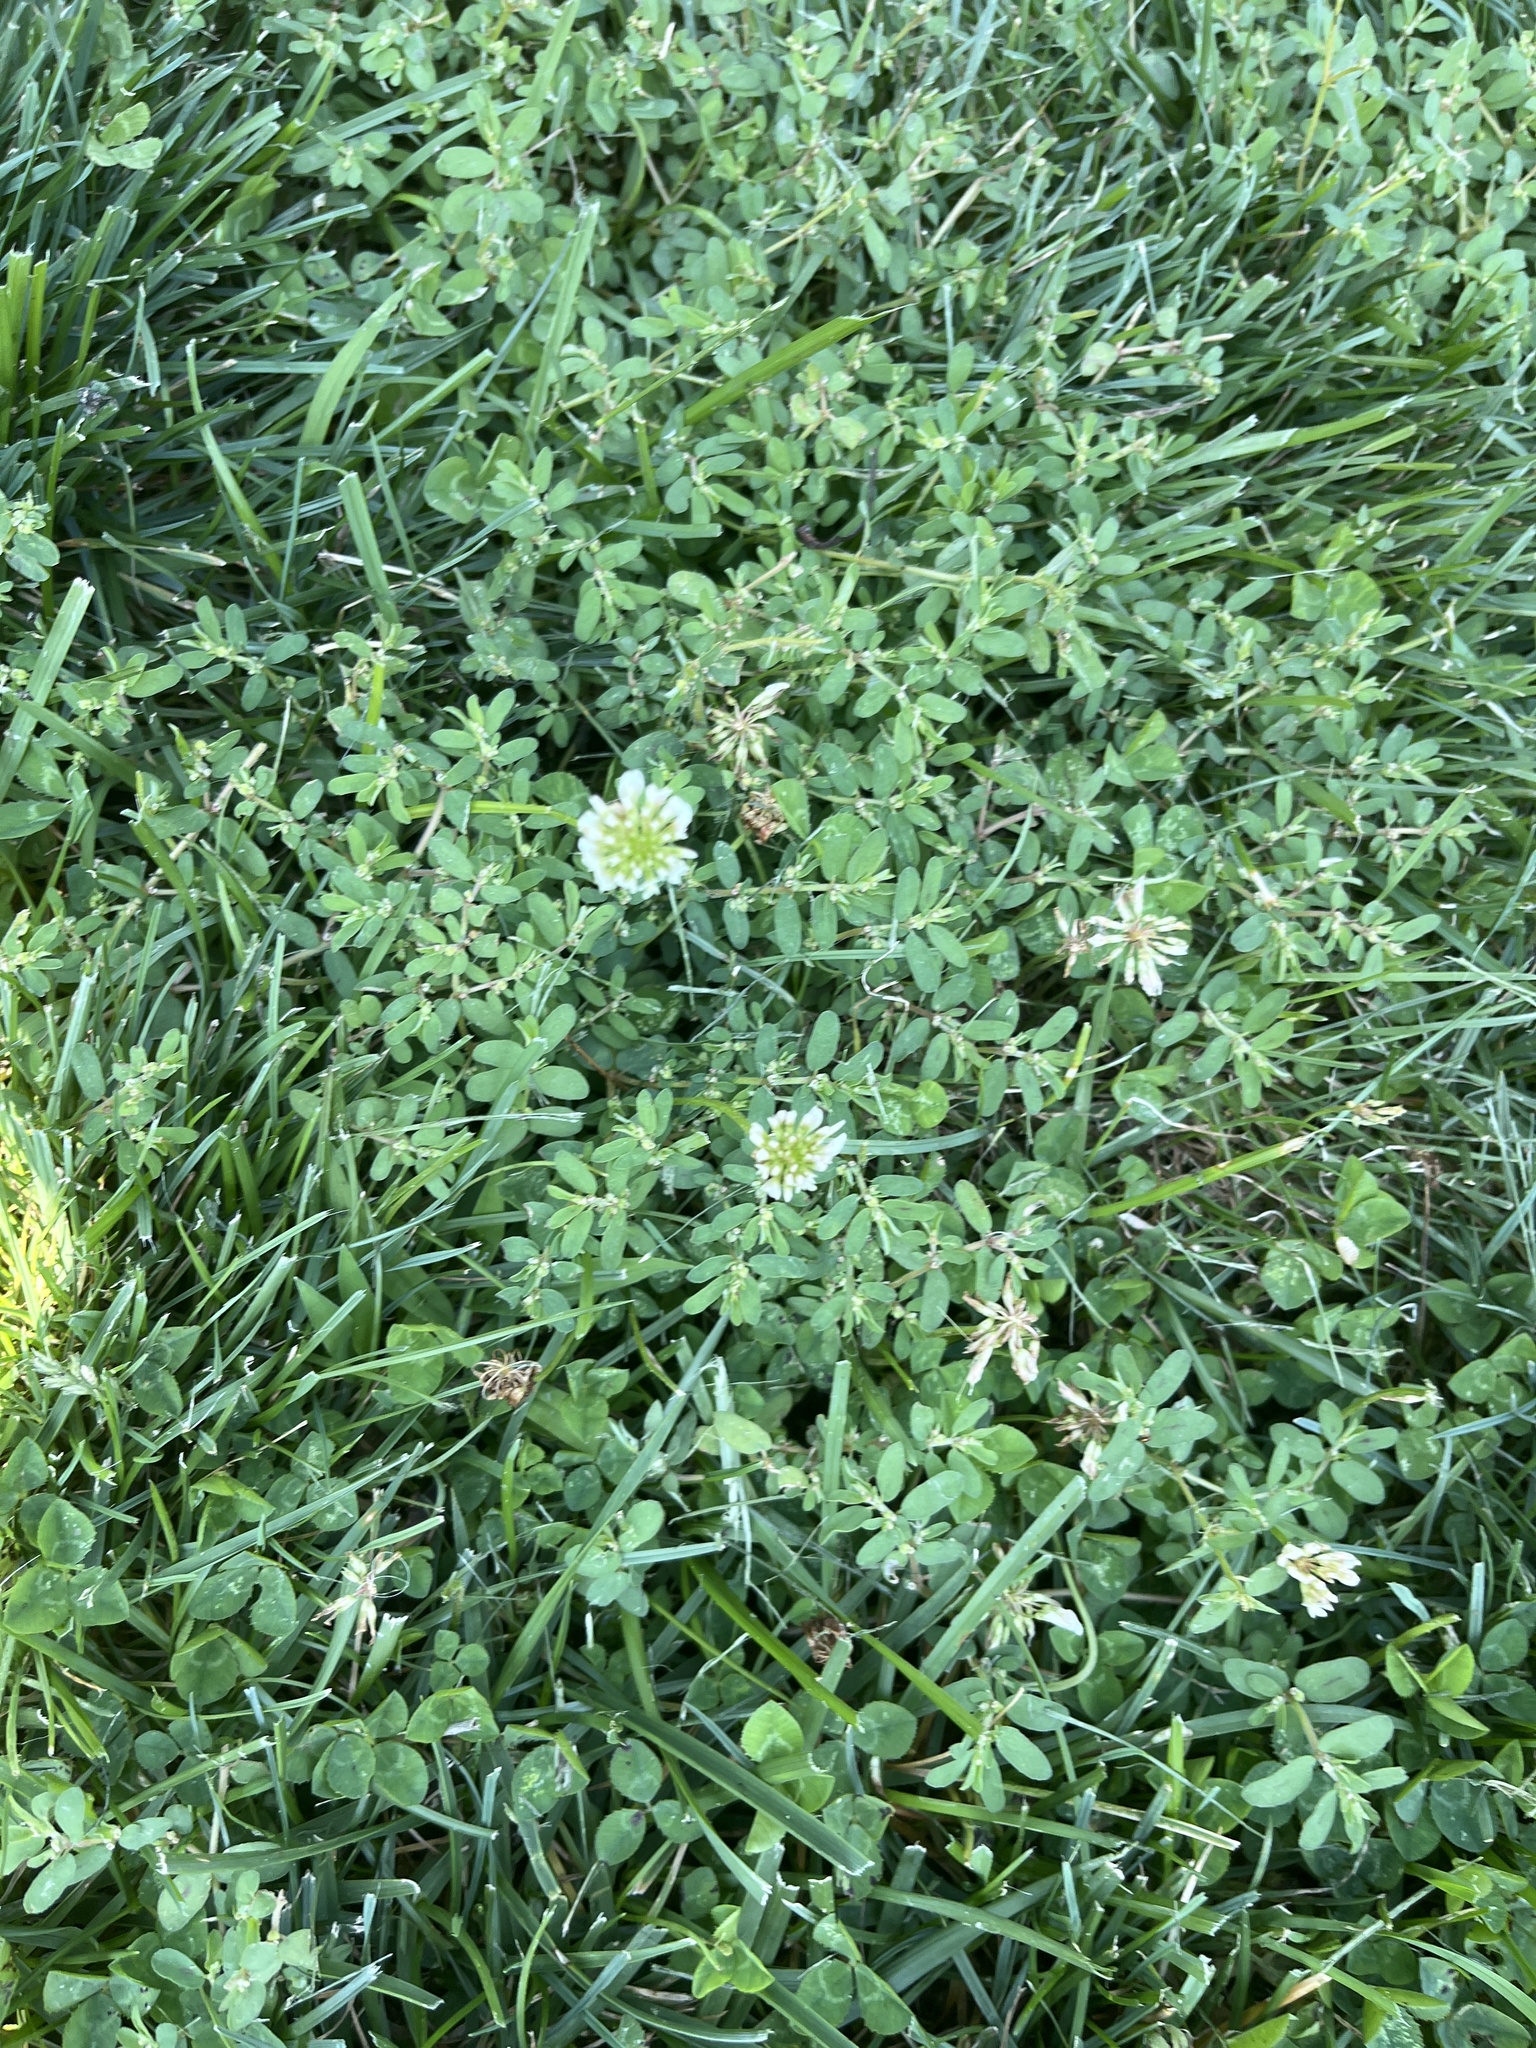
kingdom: Plantae
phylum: Tracheophyta
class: Magnoliopsida
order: Fabales
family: Fabaceae
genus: Trifolium
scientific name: Trifolium repens
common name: White clover
